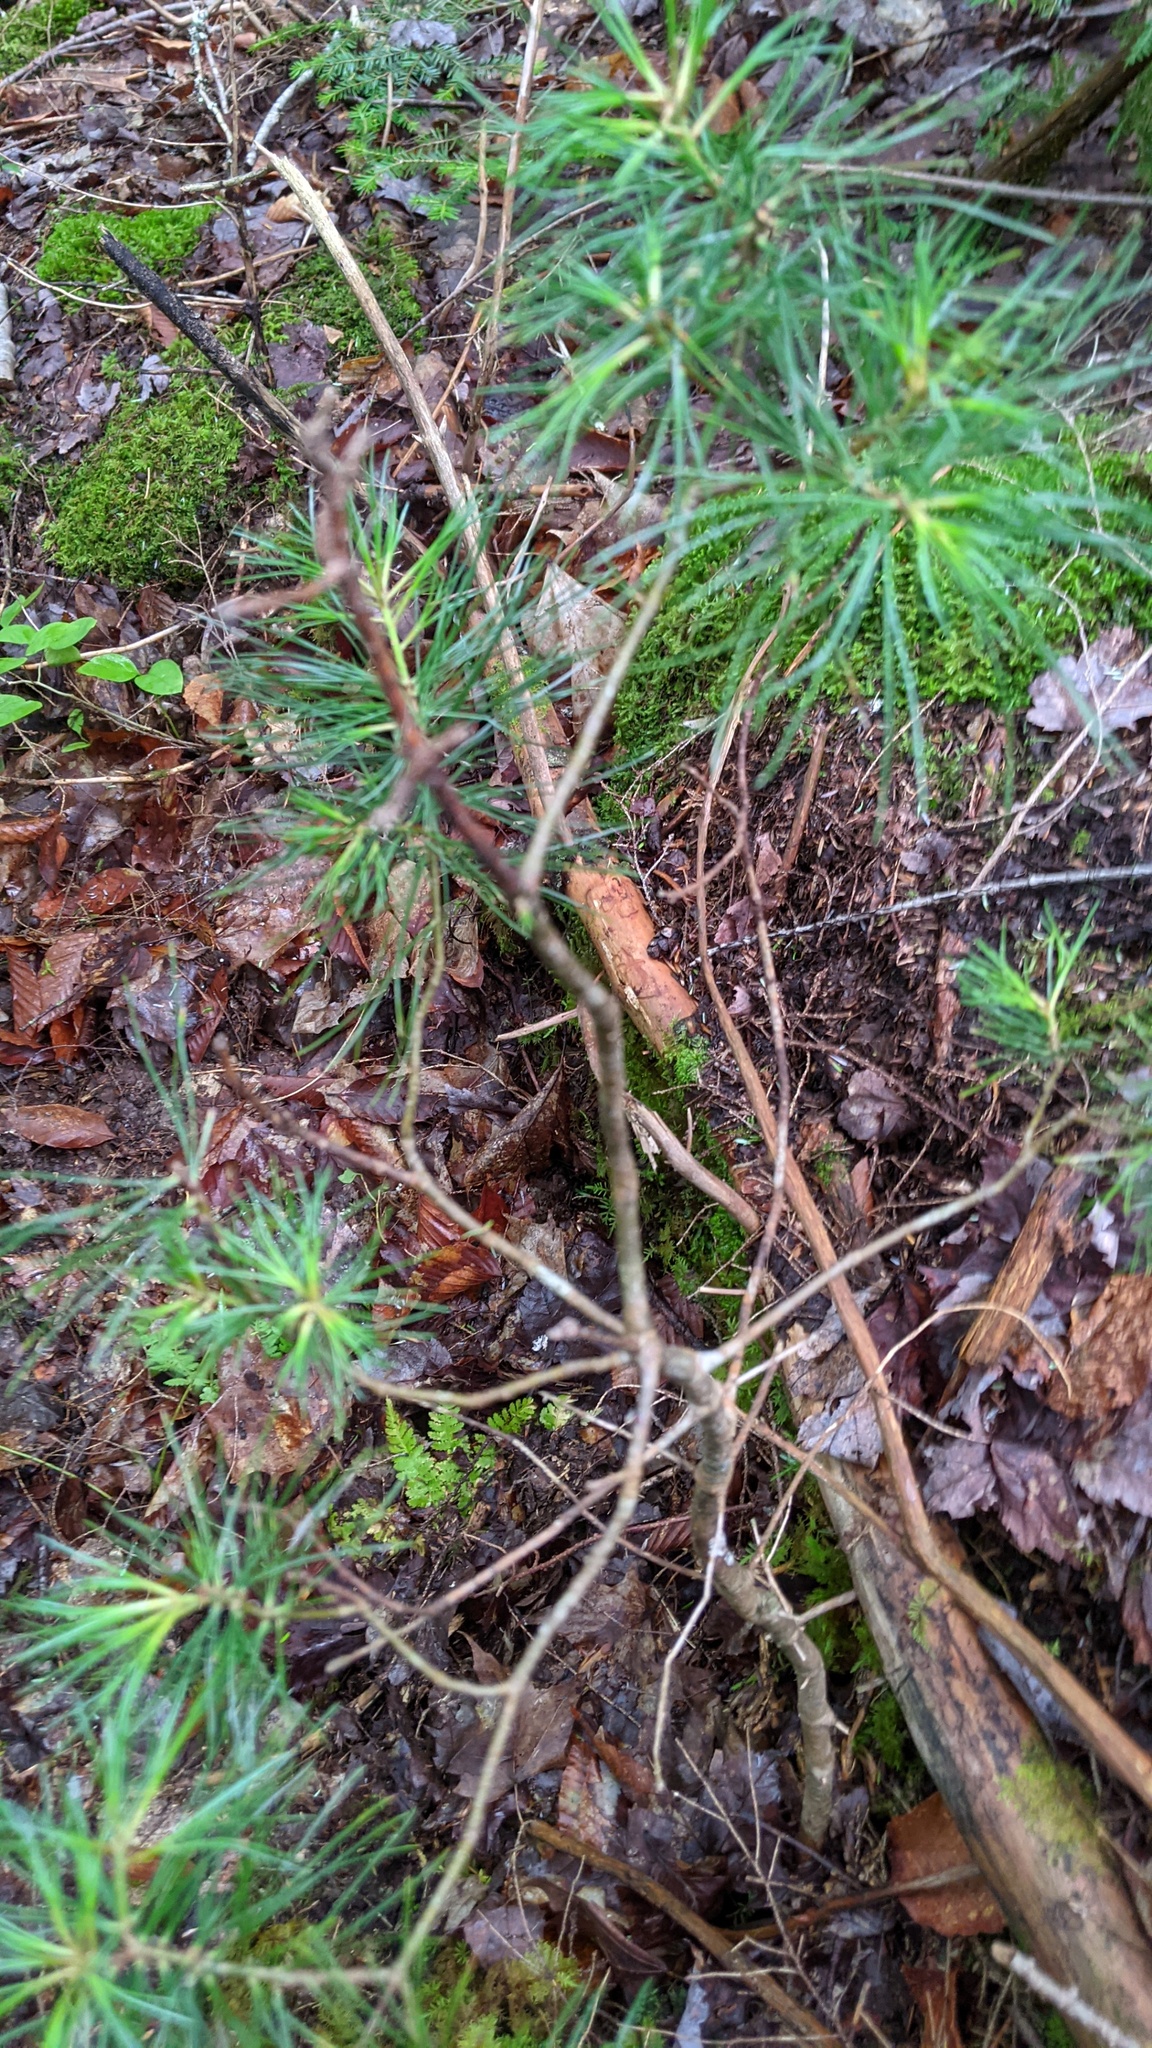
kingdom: Plantae
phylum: Tracheophyta
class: Pinopsida
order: Pinales
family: Pinaceae
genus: Pinus
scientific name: Pinus strobus
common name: Weymouth pine
